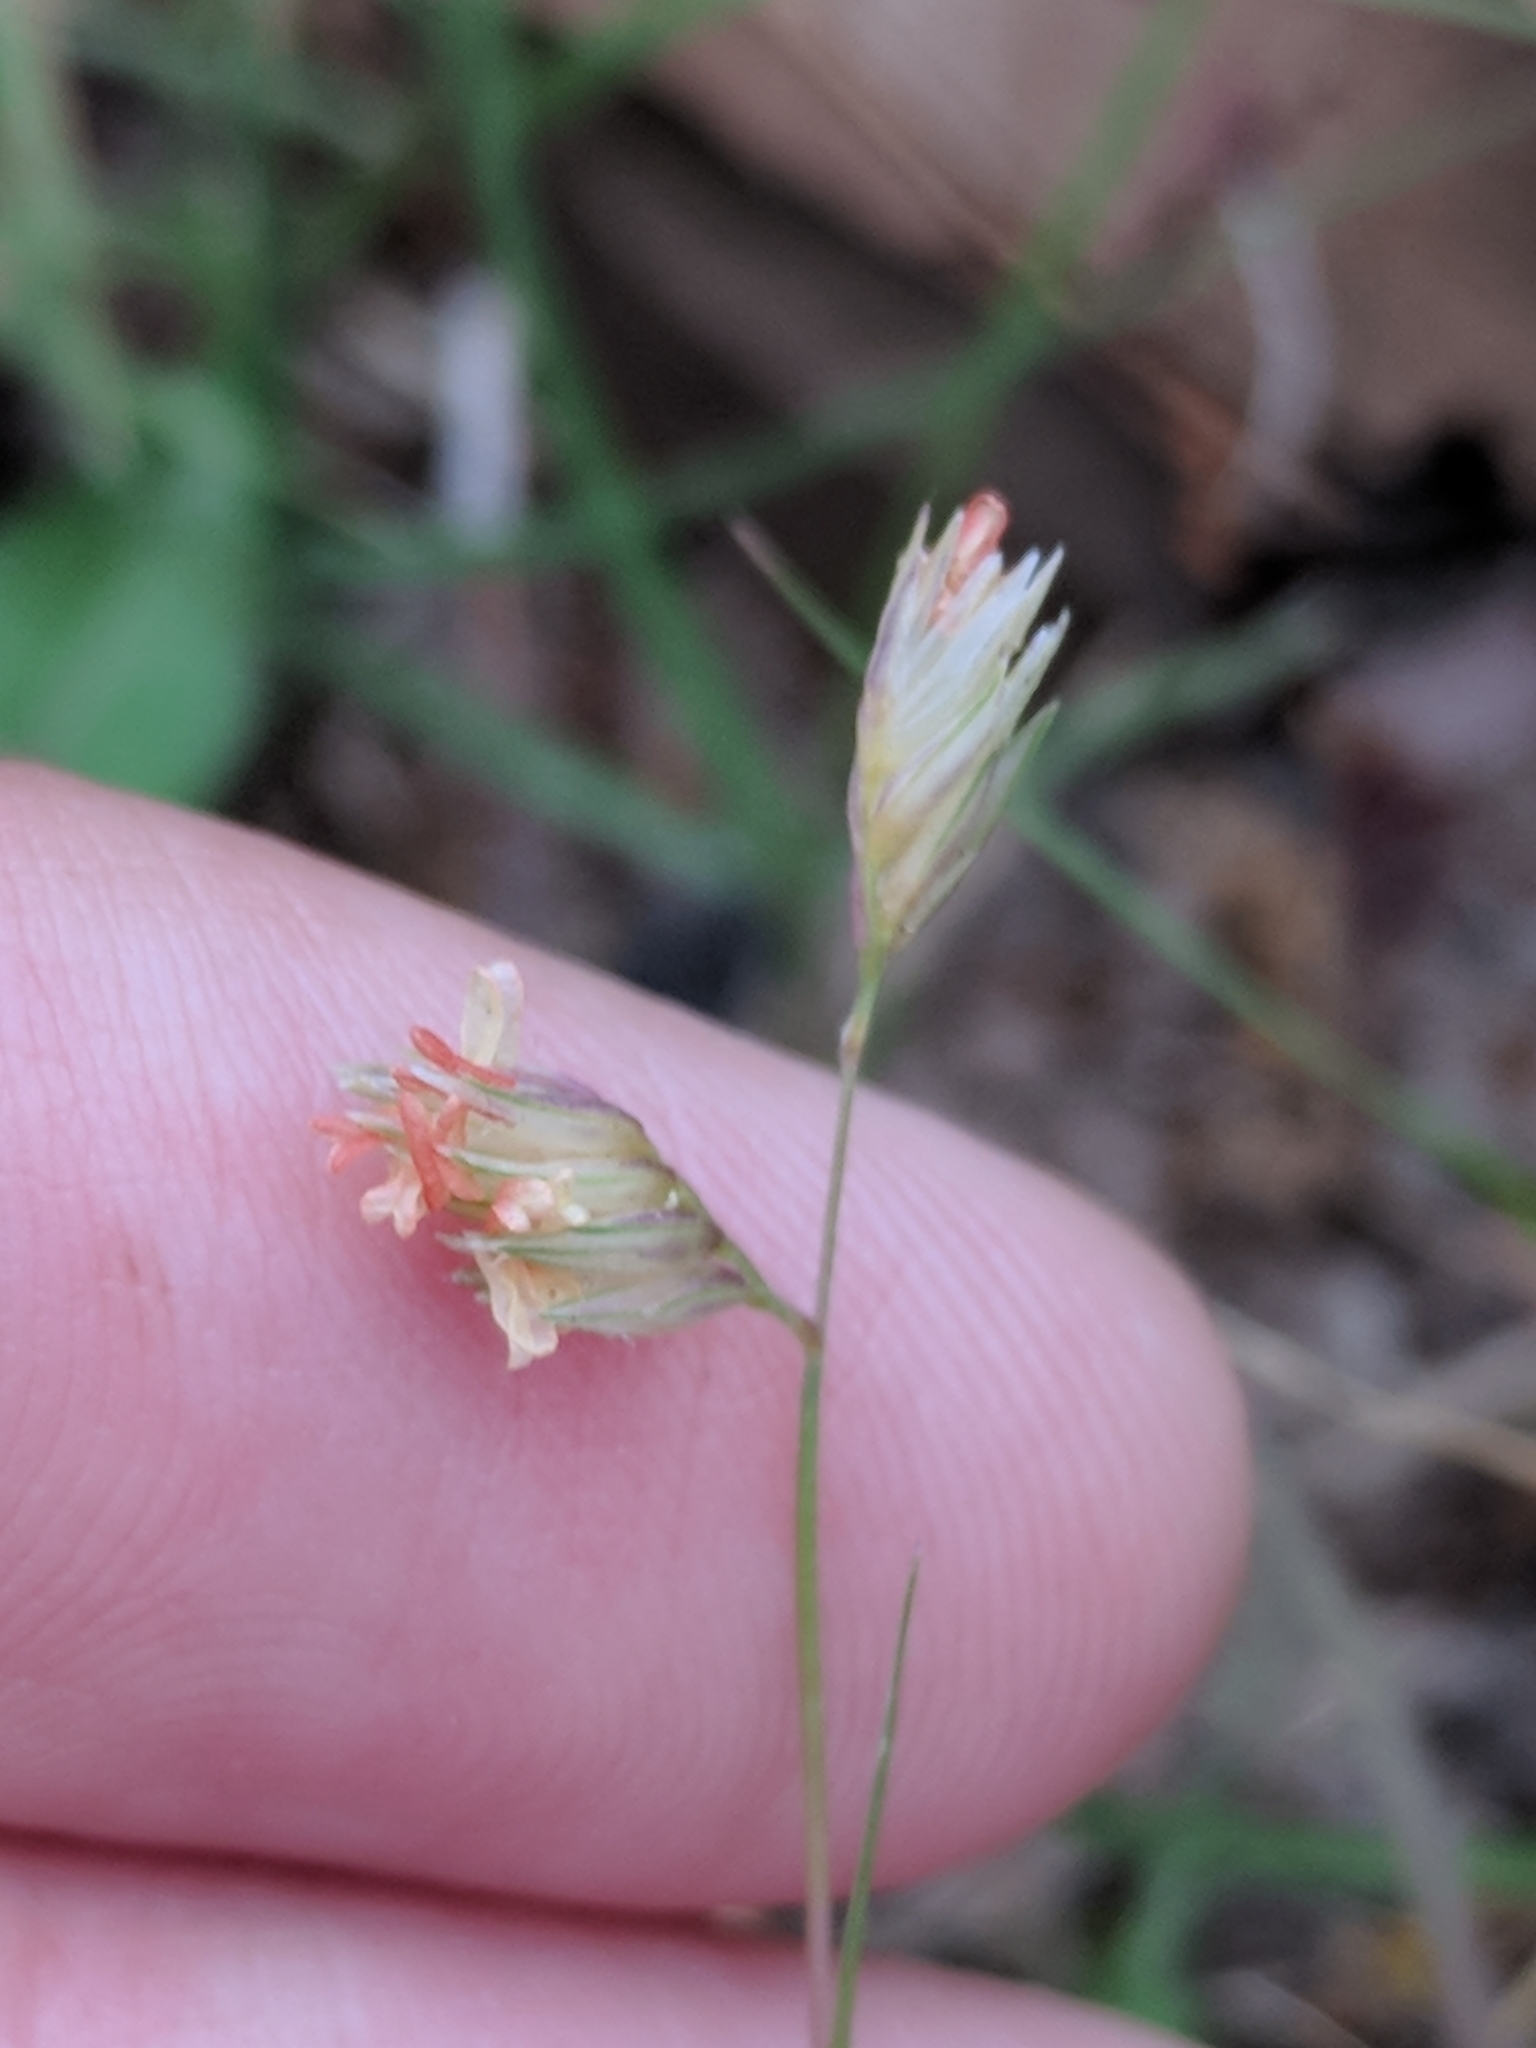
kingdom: Plantae
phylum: Tracheophyta
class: Liliopsida
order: Poales
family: Poaceae
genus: Bouteloua
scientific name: Bouteloua dactyloides
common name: Buffalo grass
